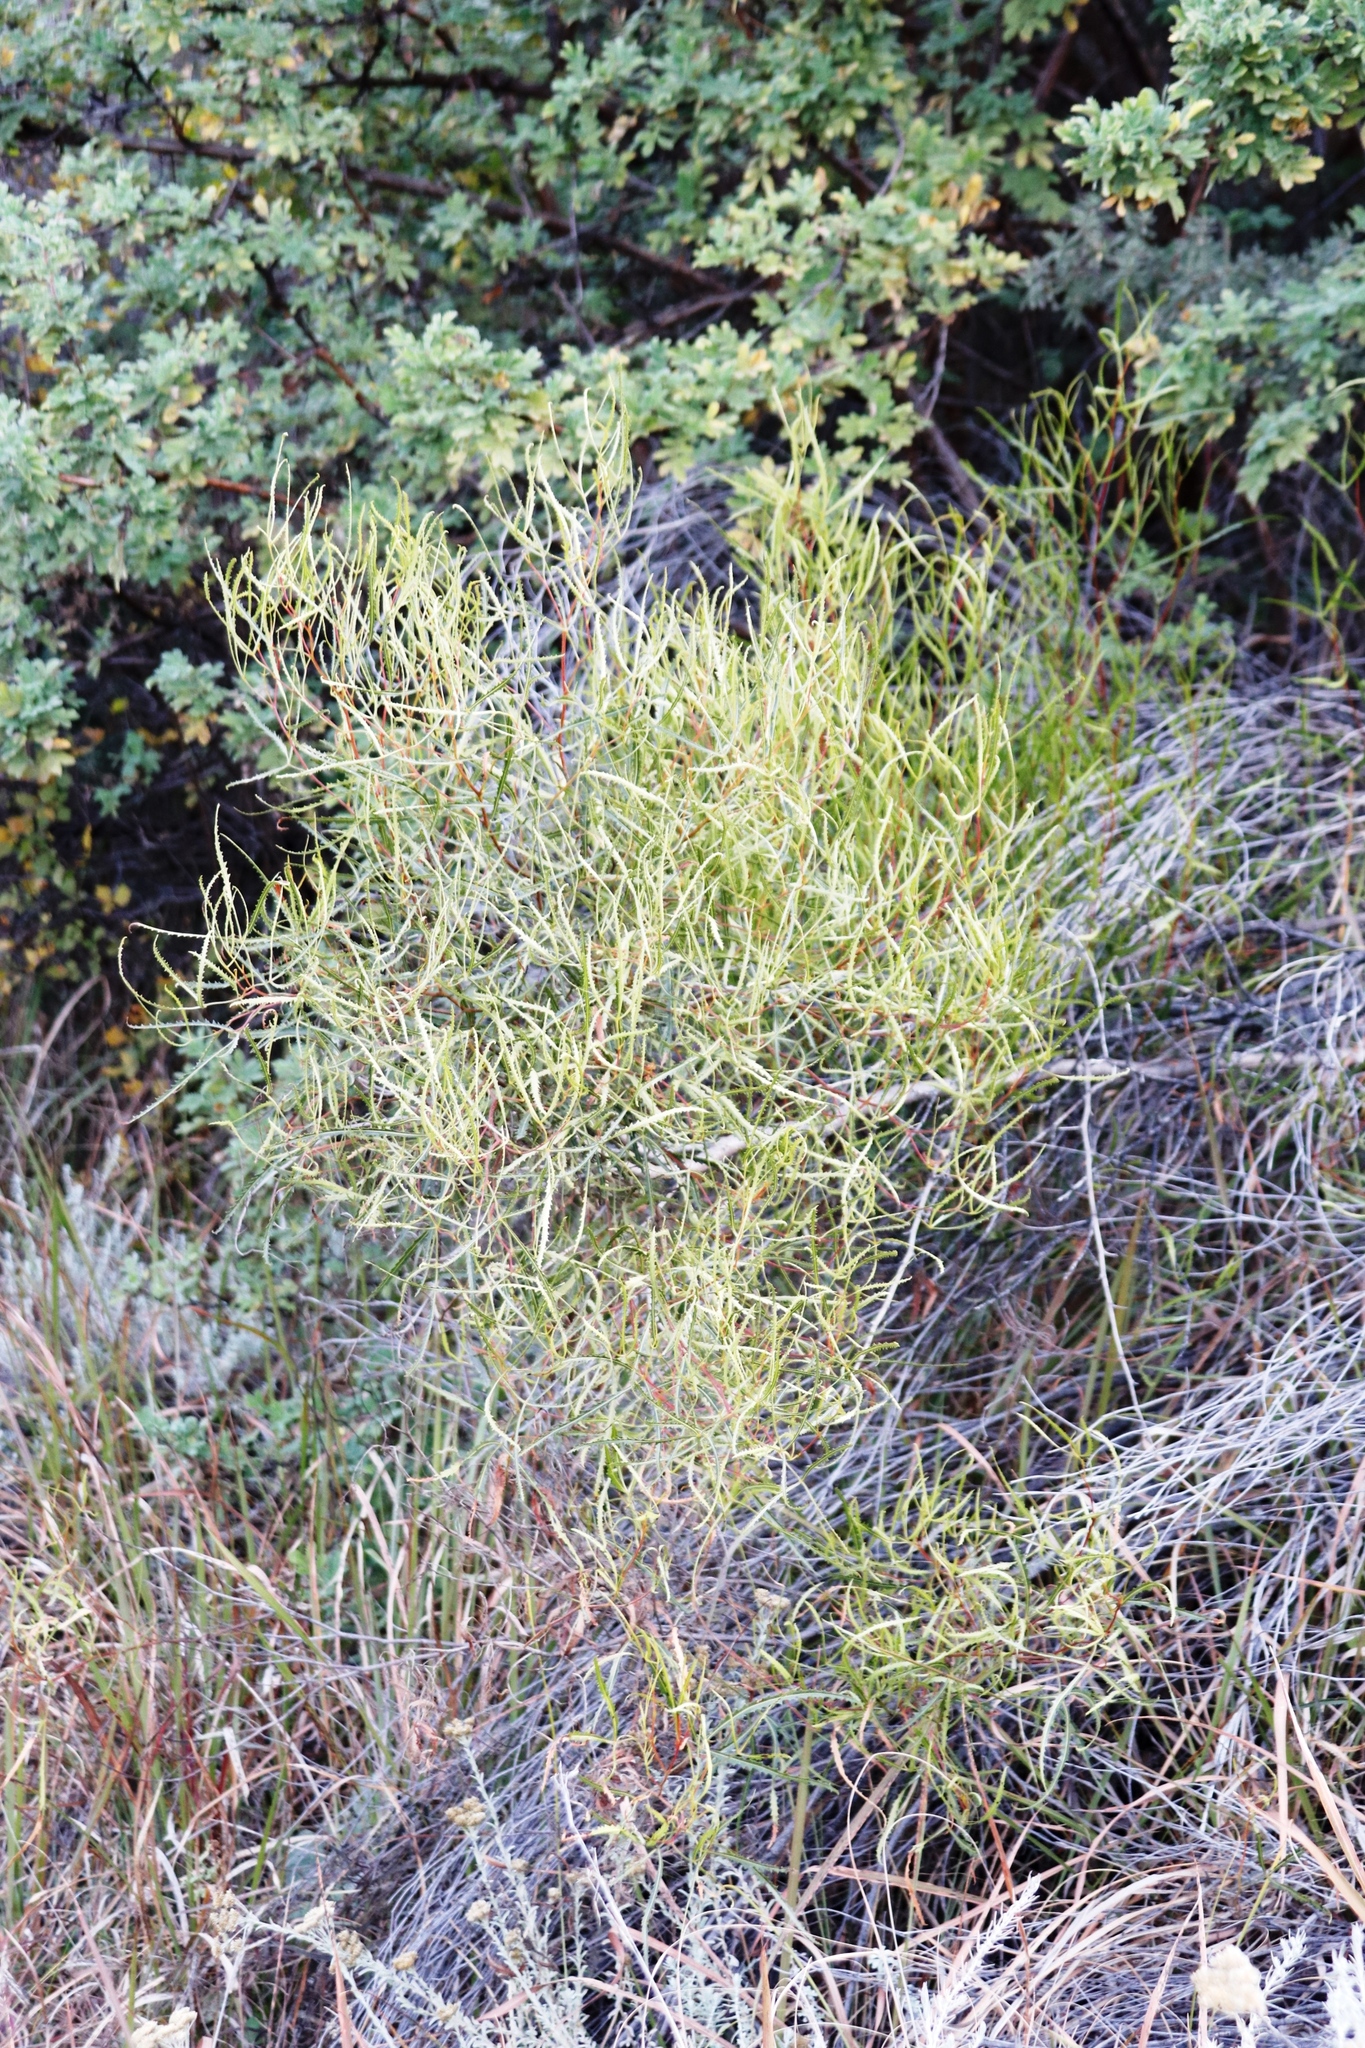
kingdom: Plantae
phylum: Tracheophyta
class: Magnoliopsida
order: Sapindales
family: Anacardiaceae
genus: Searsia
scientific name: Searsia erosa
